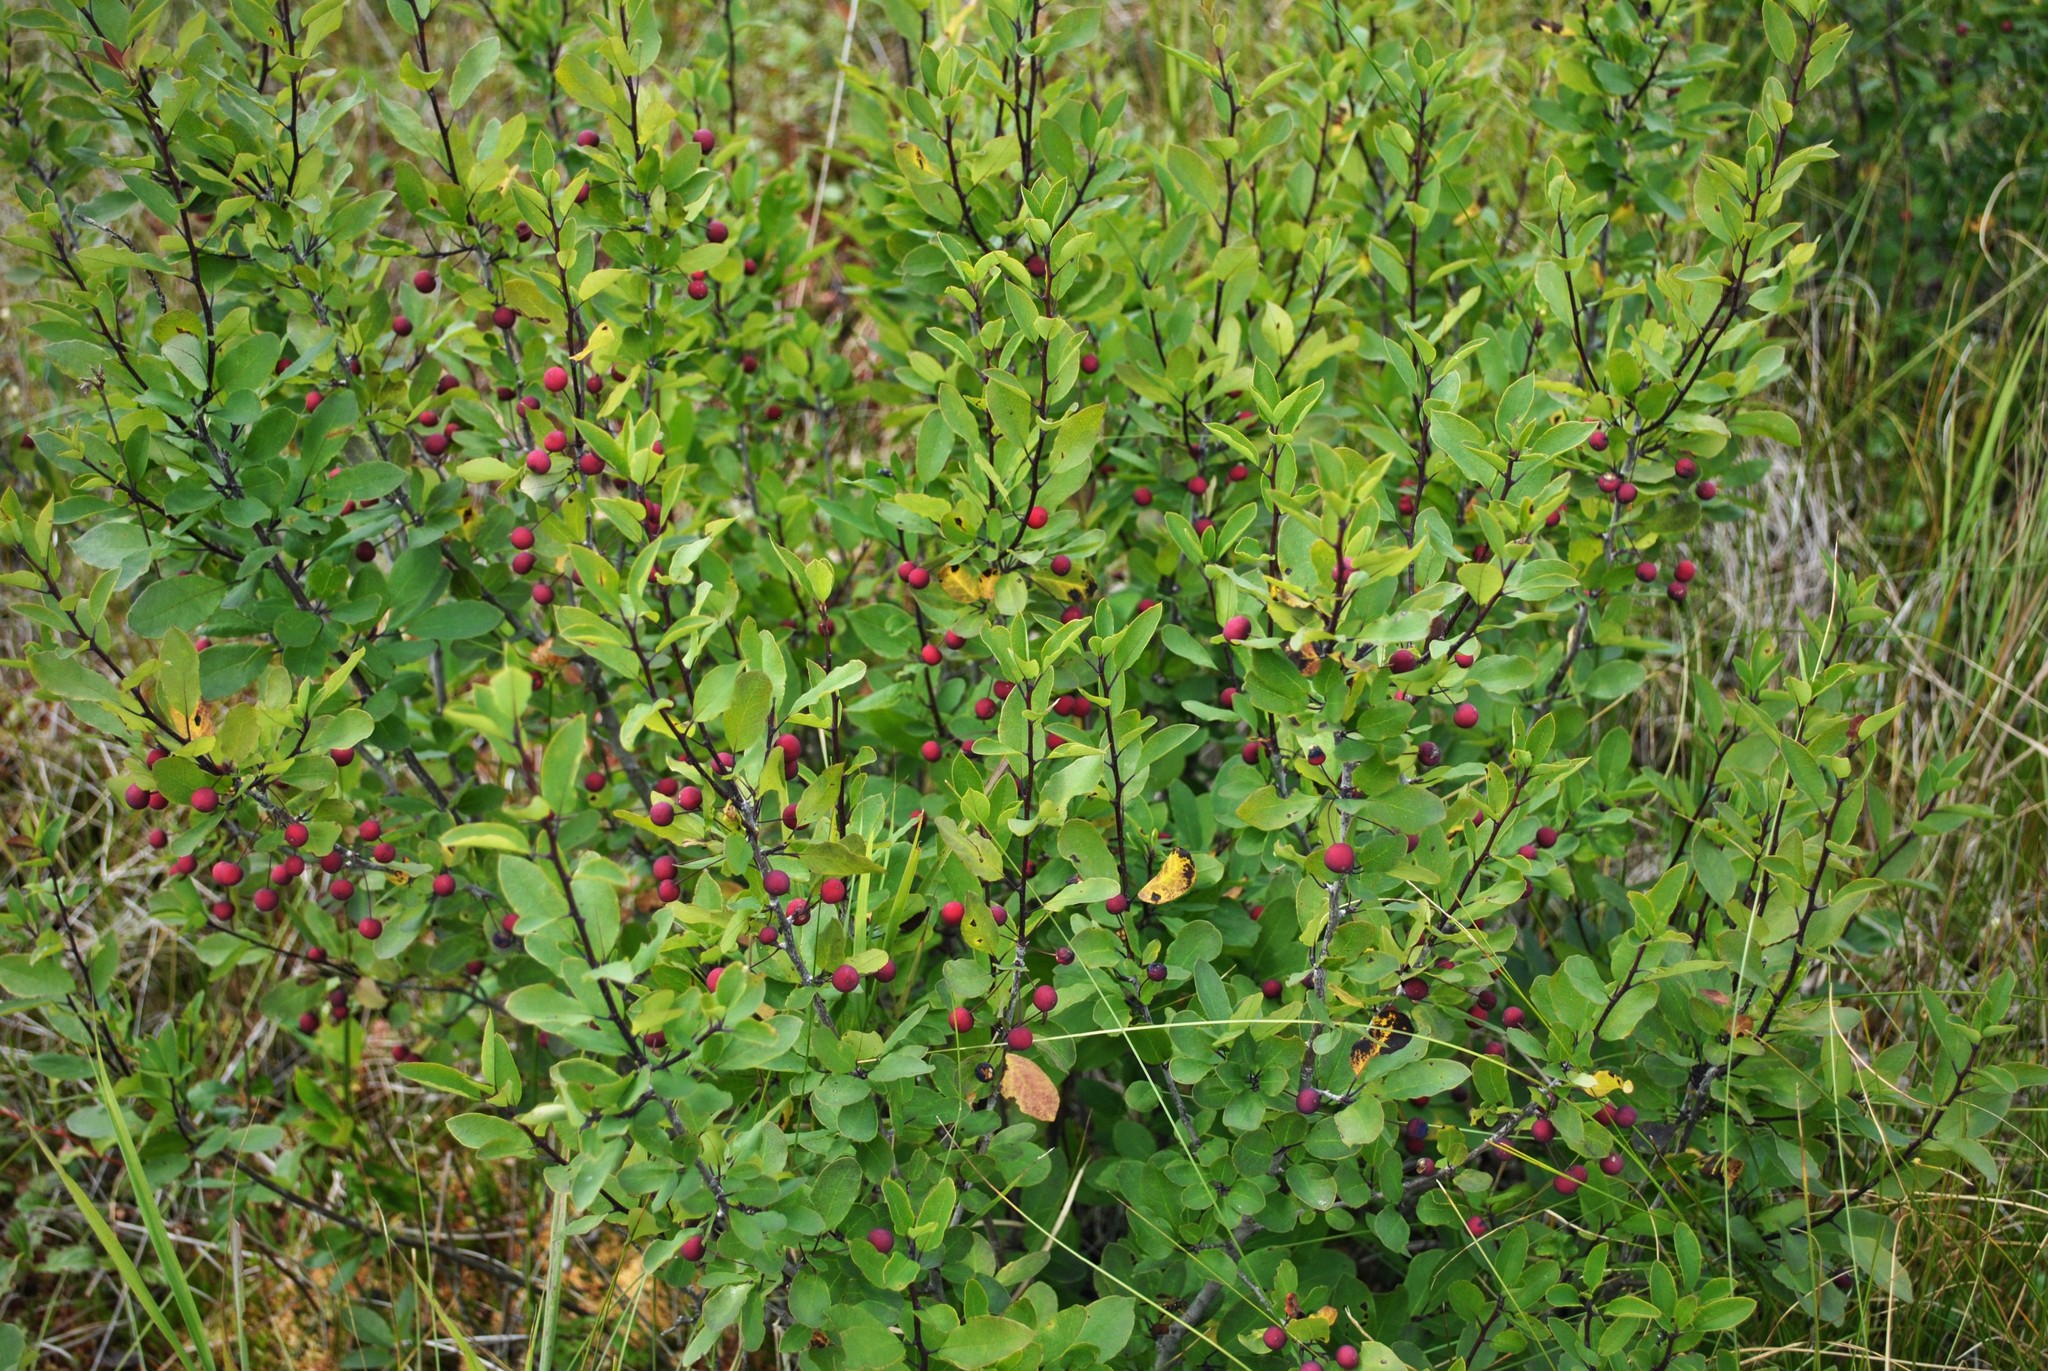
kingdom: Plantae
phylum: Tracheophyta
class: Magnoliopsida
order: Aquifoliales
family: Aquifoliaceae
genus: Ilex
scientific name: Ilex mucronata
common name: Catberry
